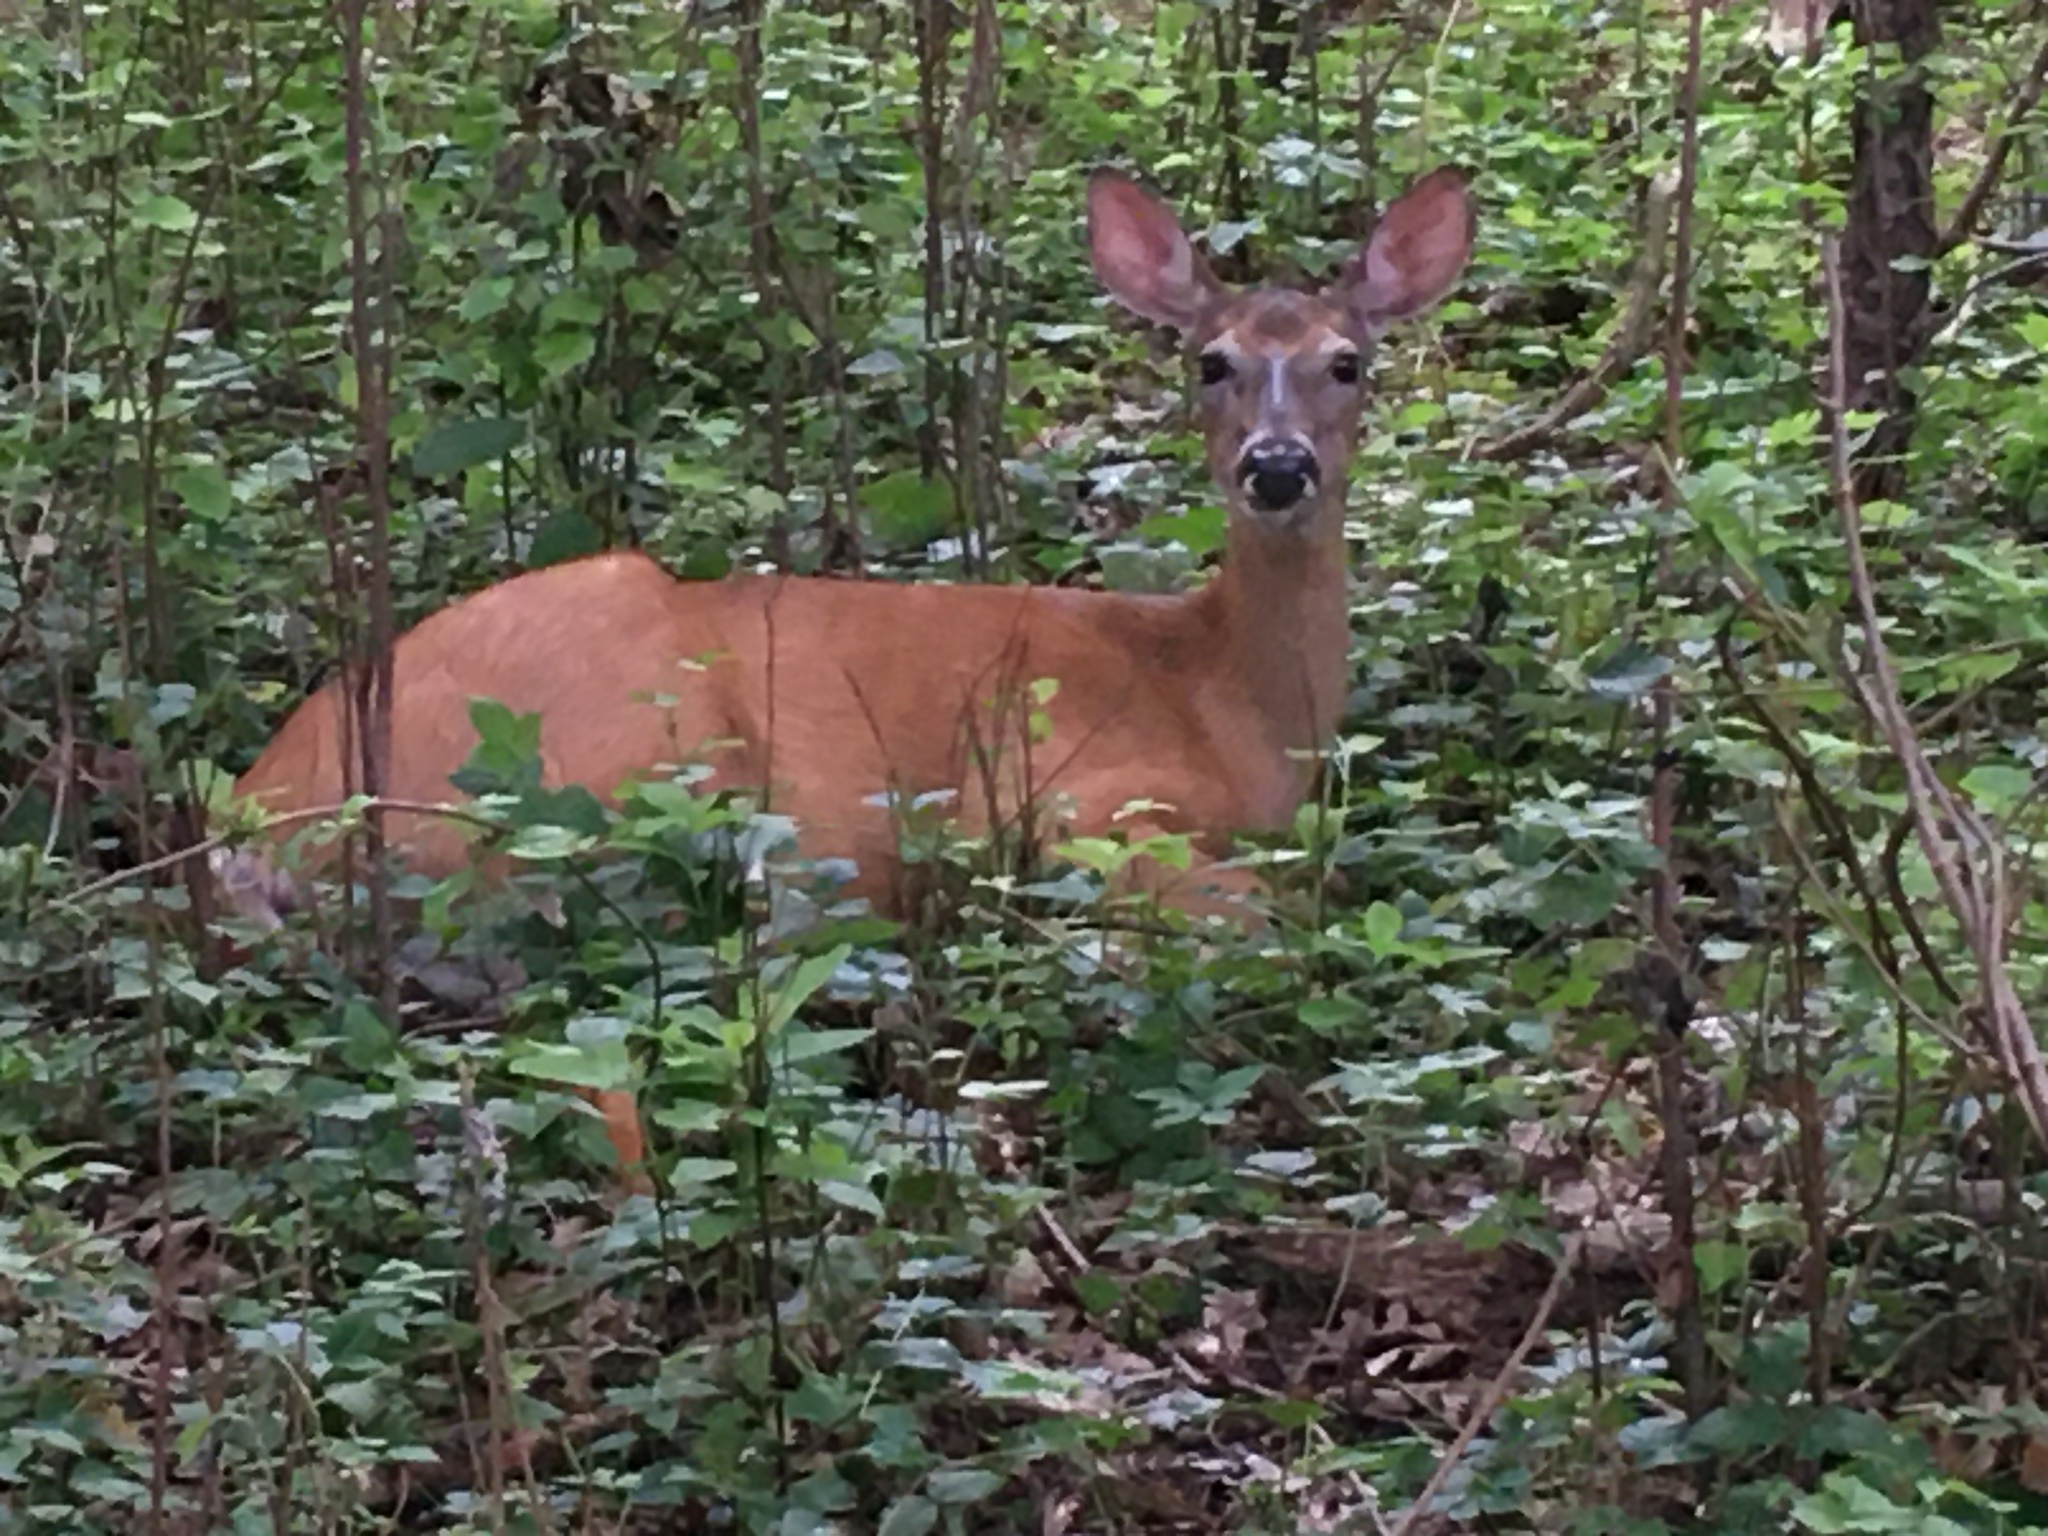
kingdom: Animalia
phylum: Chordata
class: Mammalia
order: Artiodactyla
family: Cervidae
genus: Odocoileus
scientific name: Odocoileus virginianus
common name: White-tailed deer
